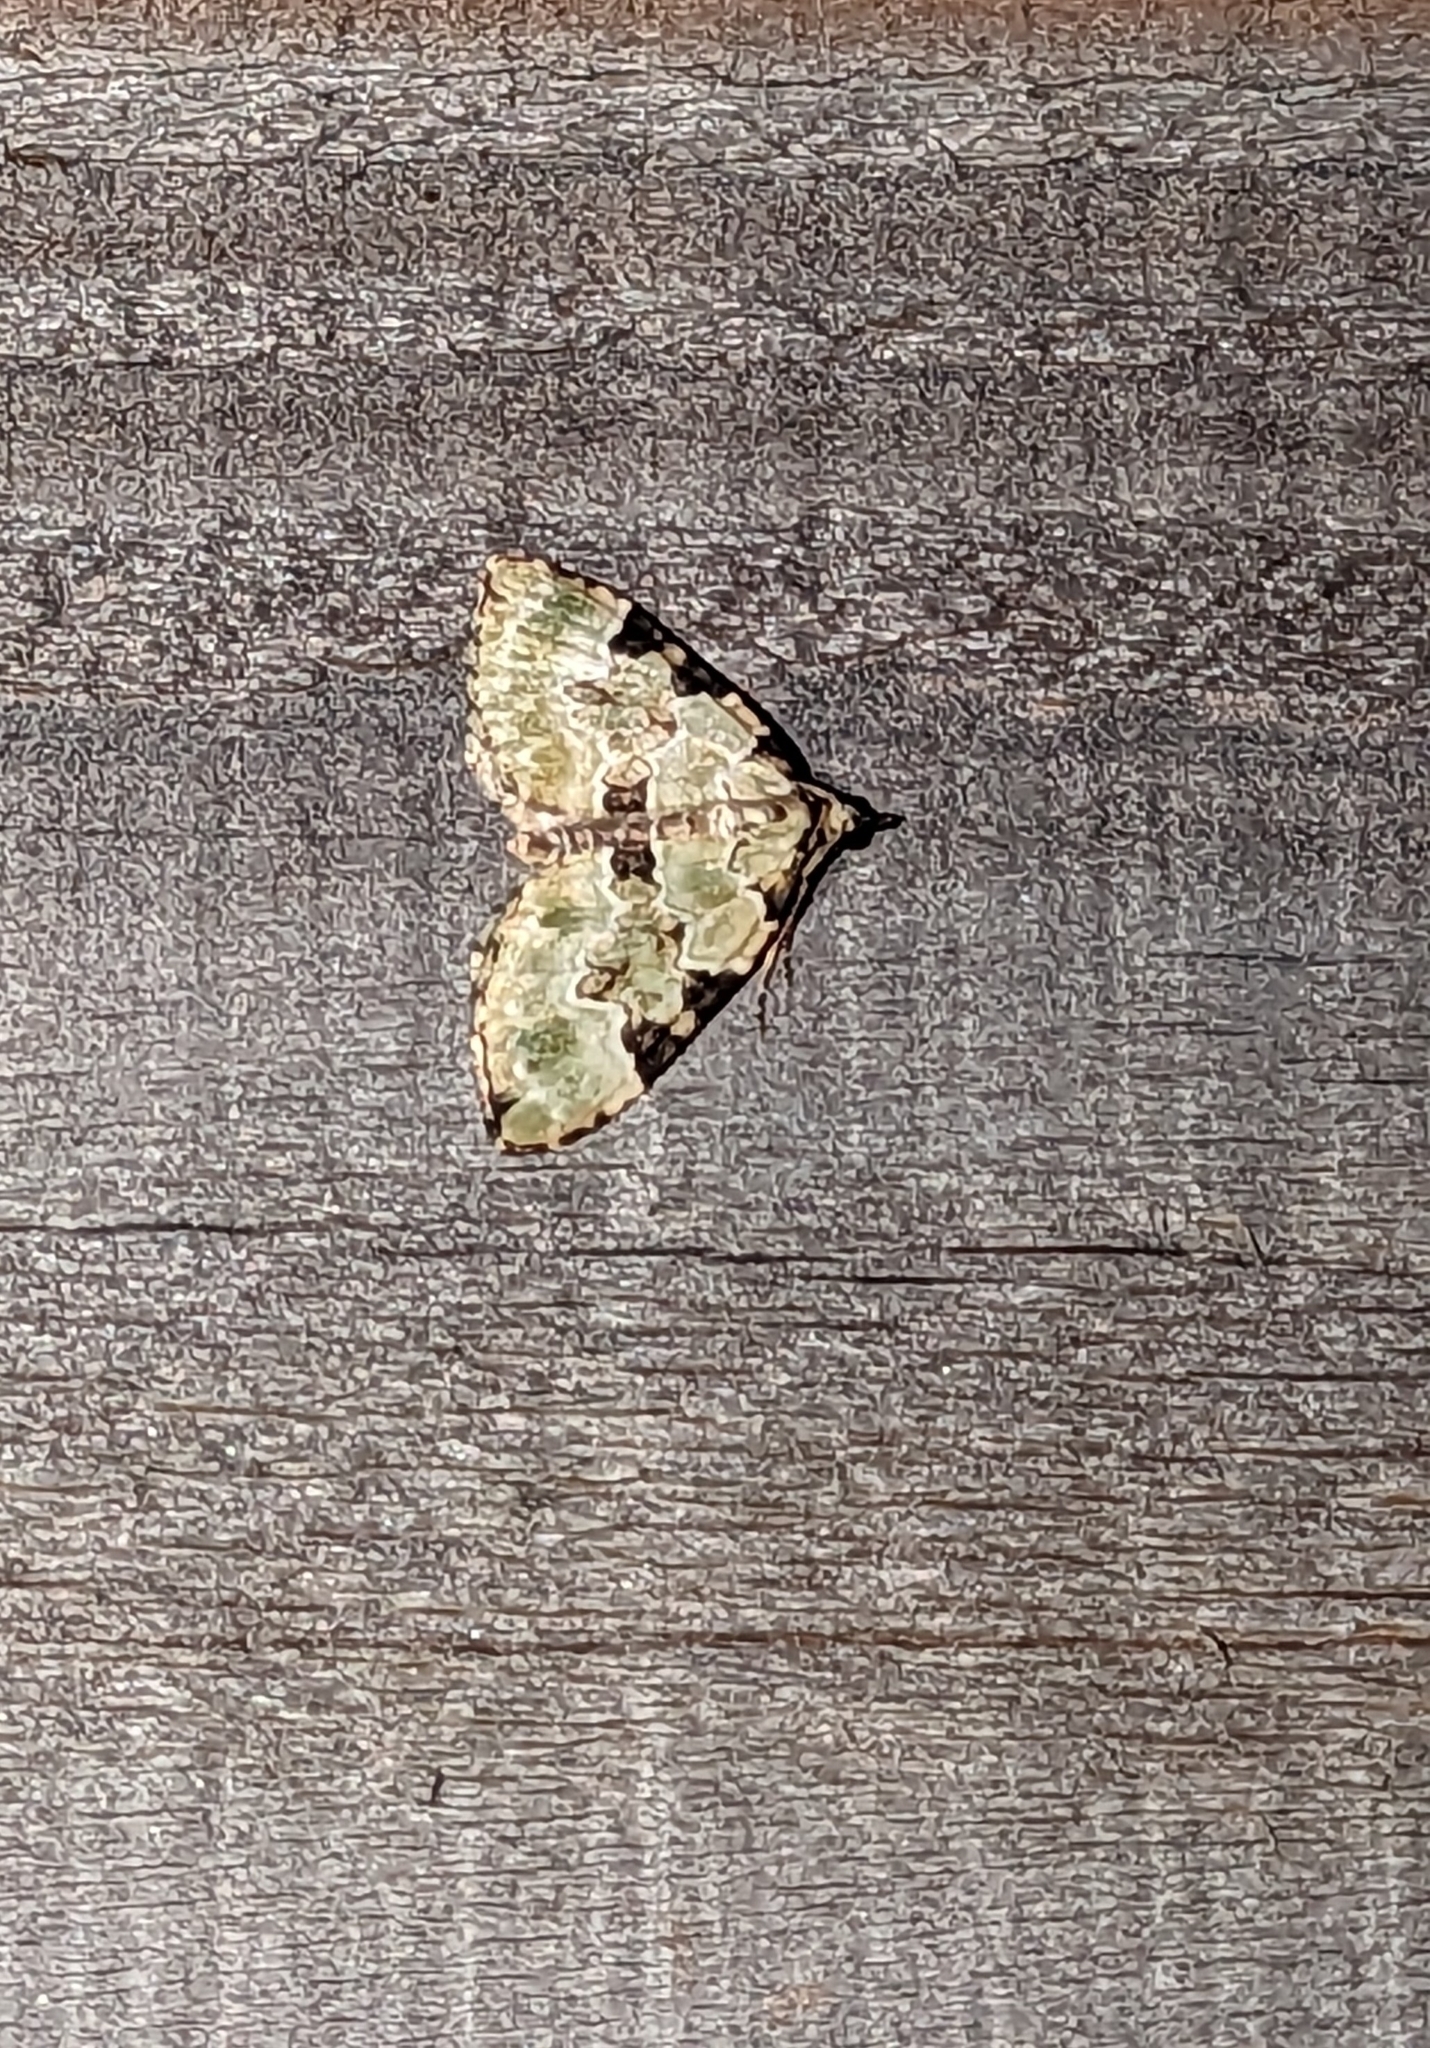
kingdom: Animalia
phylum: Arthropoda
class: Insecta
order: Lepidoptera
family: Geometridae
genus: Colostygia
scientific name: Colostygia pectinataria
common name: Green carpet
